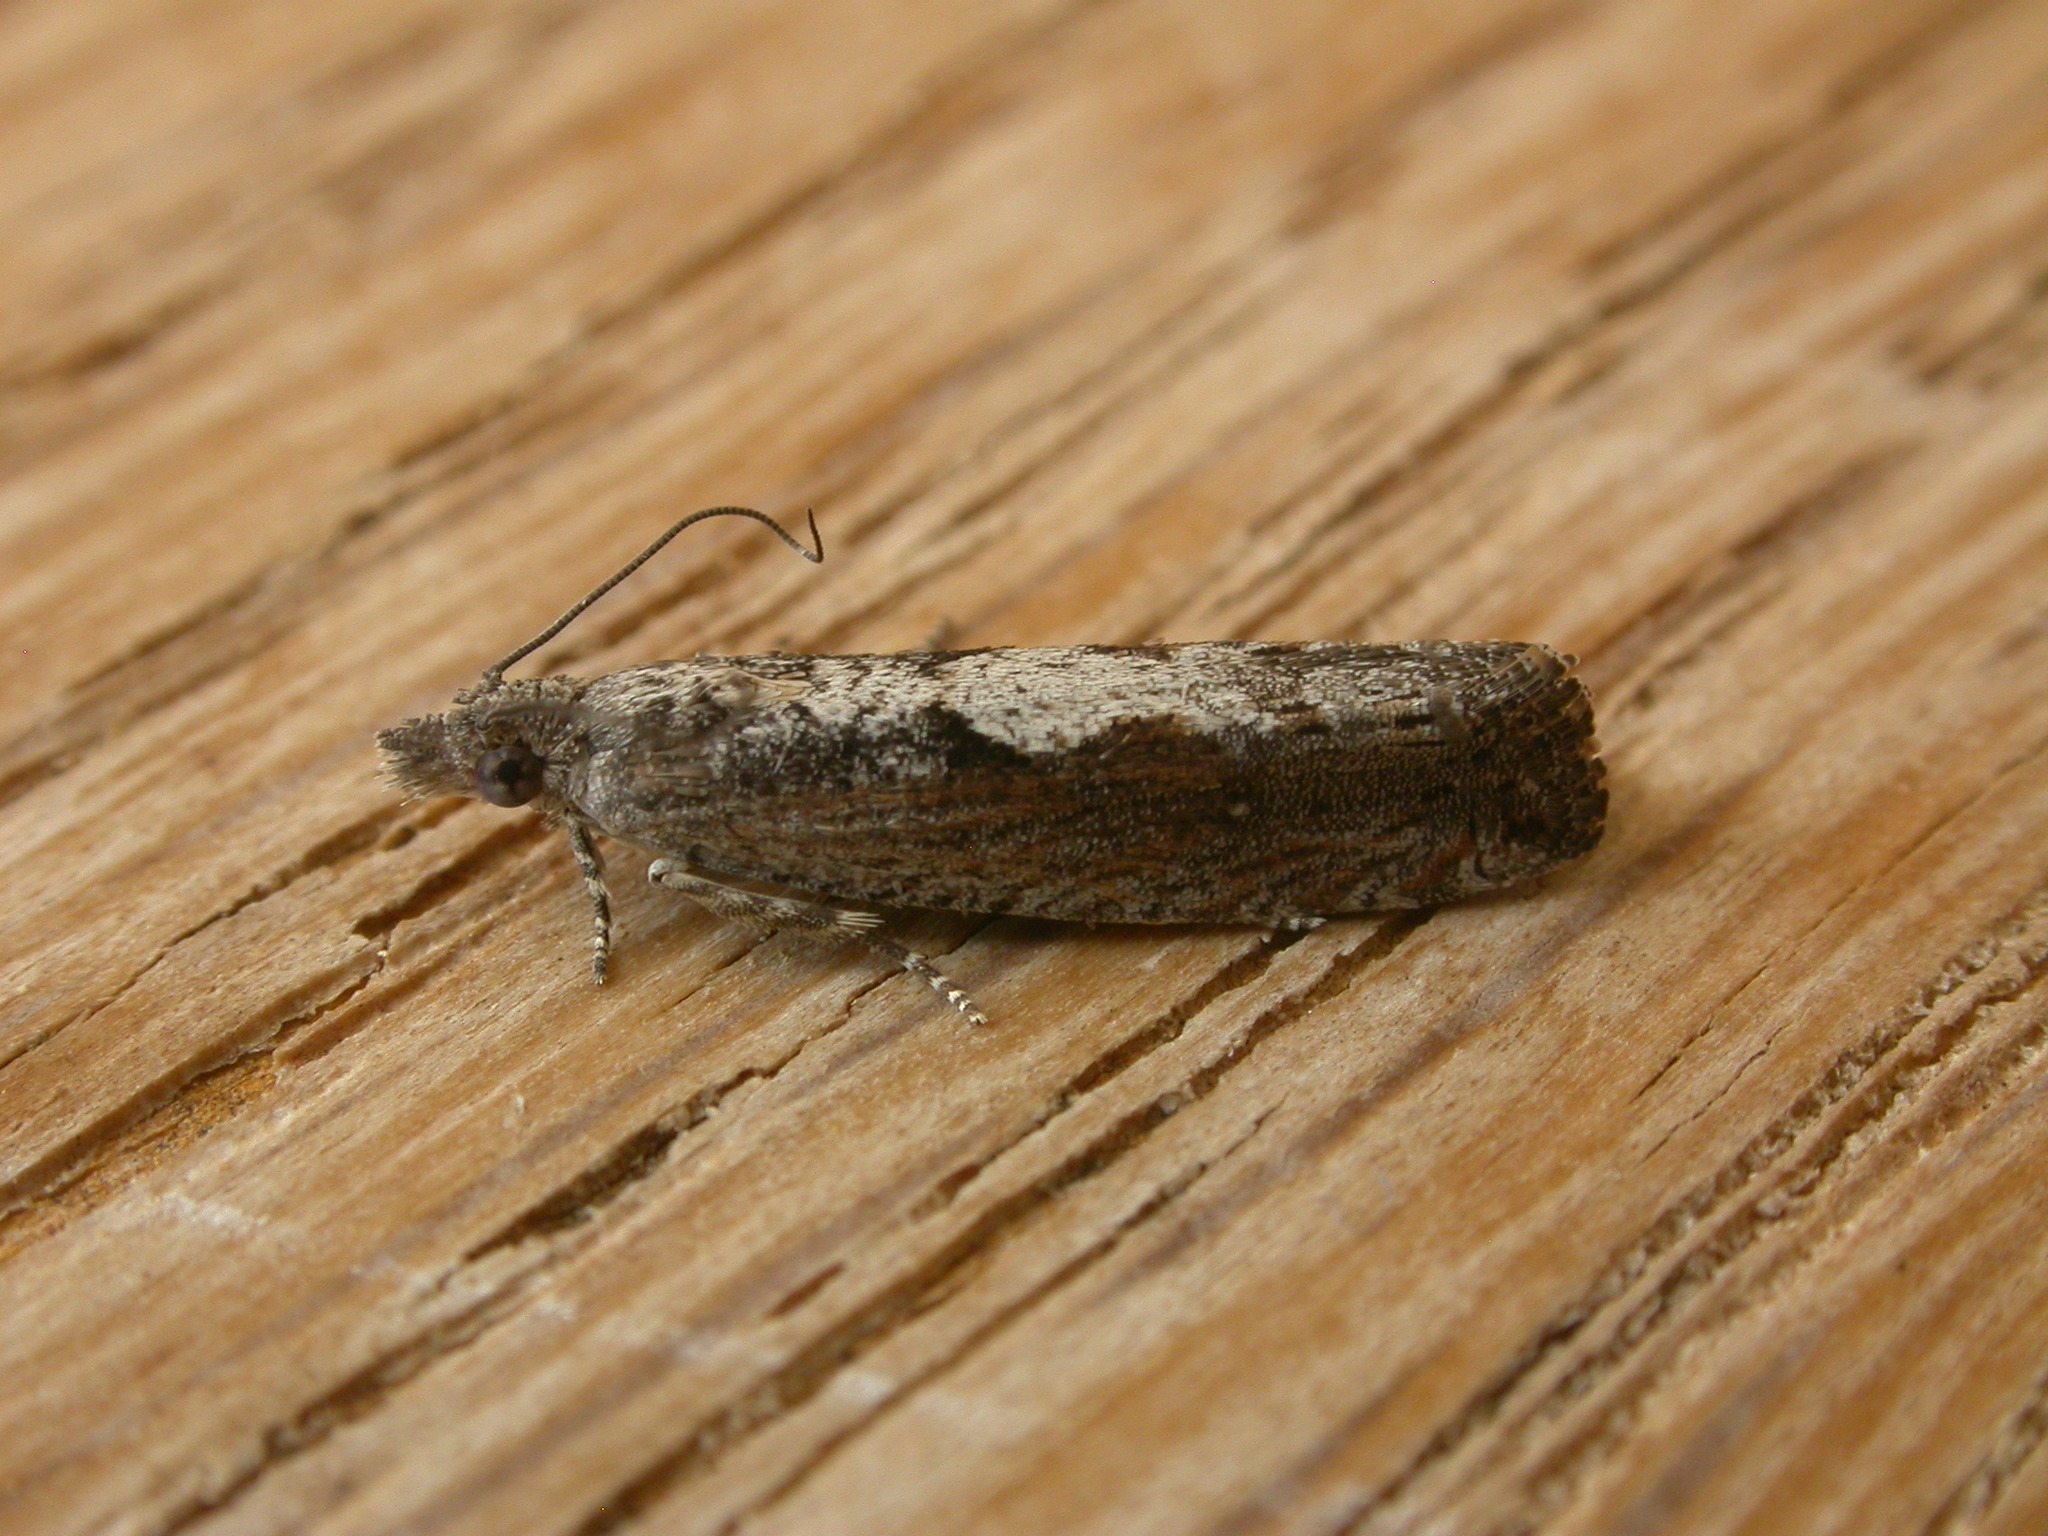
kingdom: Animalia
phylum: Arthropoda
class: Insecta
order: Lepidoptera
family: Tortricidae
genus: Strepsicrates
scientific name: Strepsicrates macropetana
